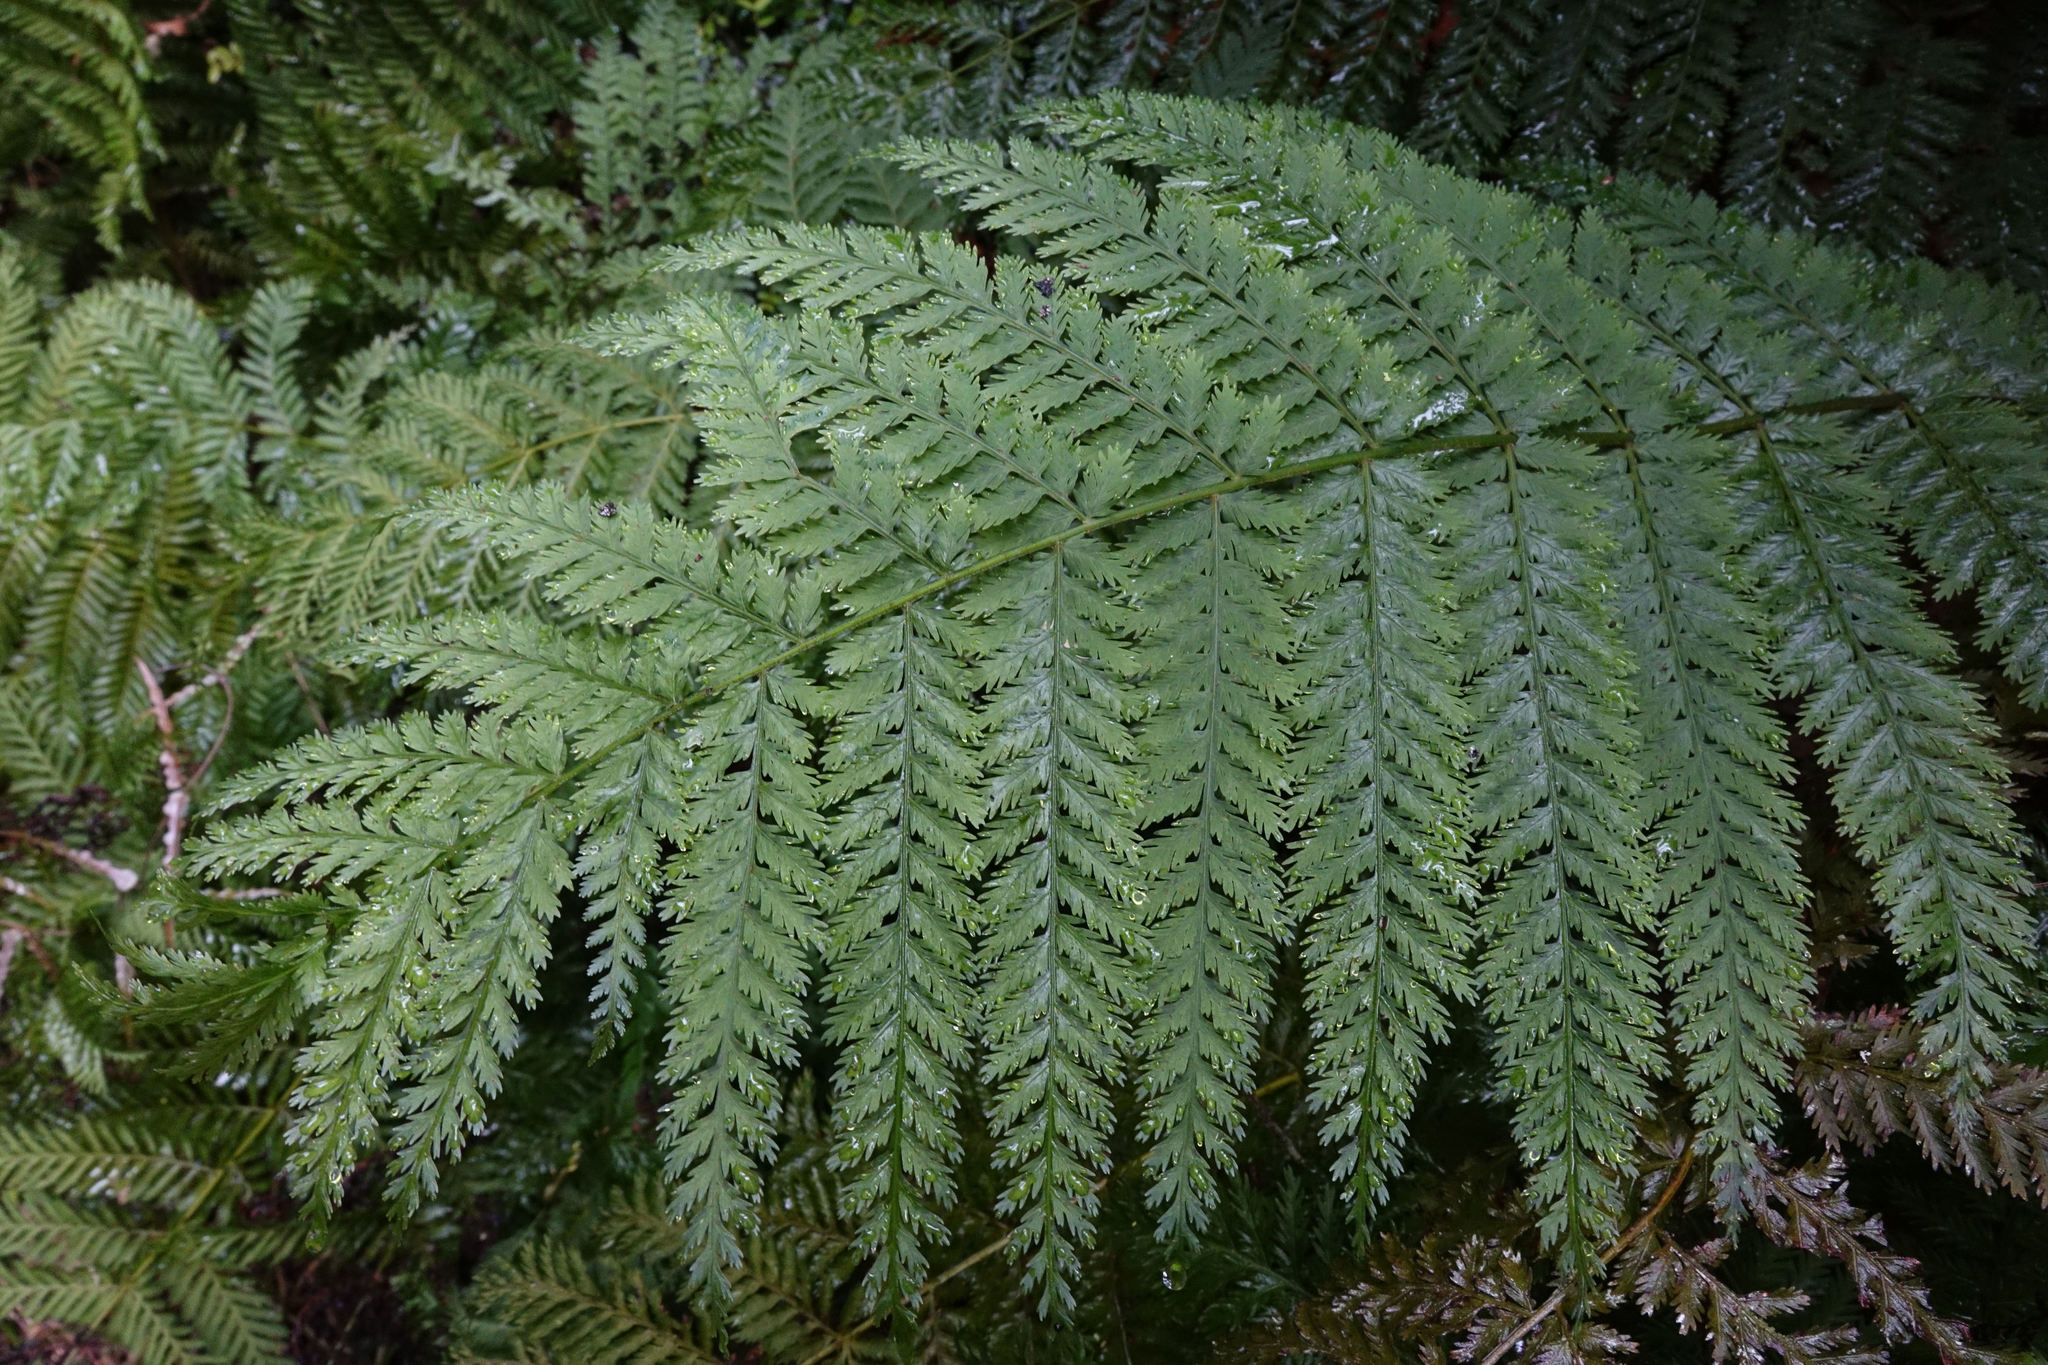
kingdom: Plantae
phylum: Tracheophyta
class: Polypodiopsida
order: Osmundales
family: Osmundaceae
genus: Leptopteris
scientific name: Leptopteris hymenophylloides
